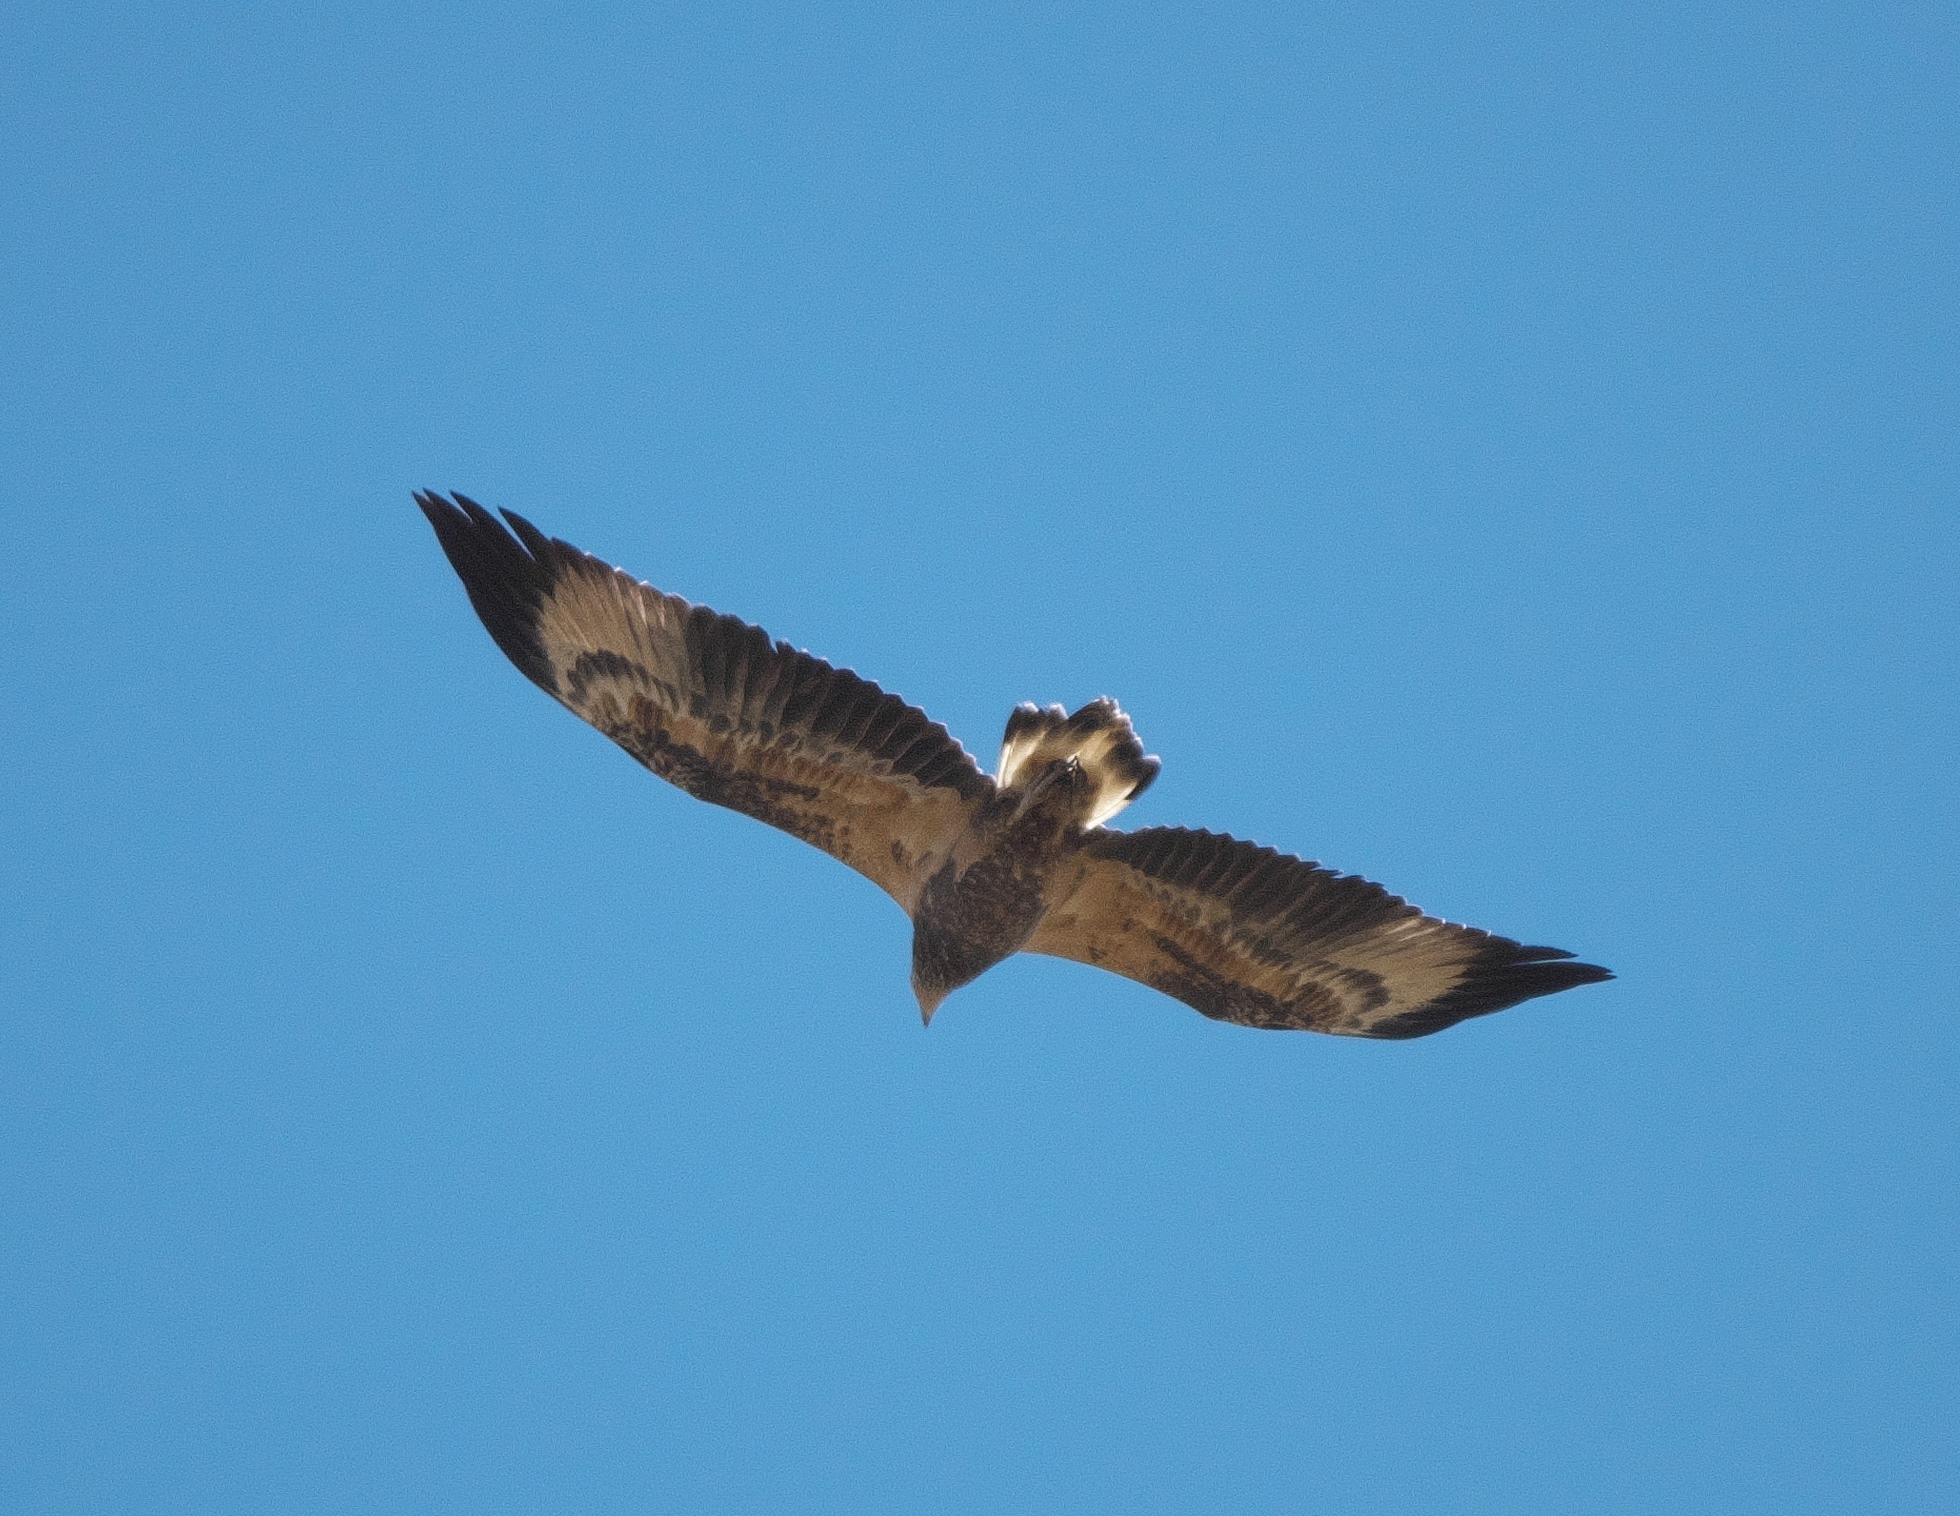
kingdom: Animalia
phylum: Chordata
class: Aves
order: Accipitriformes
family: Accipitridae
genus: Haliaeetus
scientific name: Haliaeetus leucogaster
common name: White-bellied sea eagle
